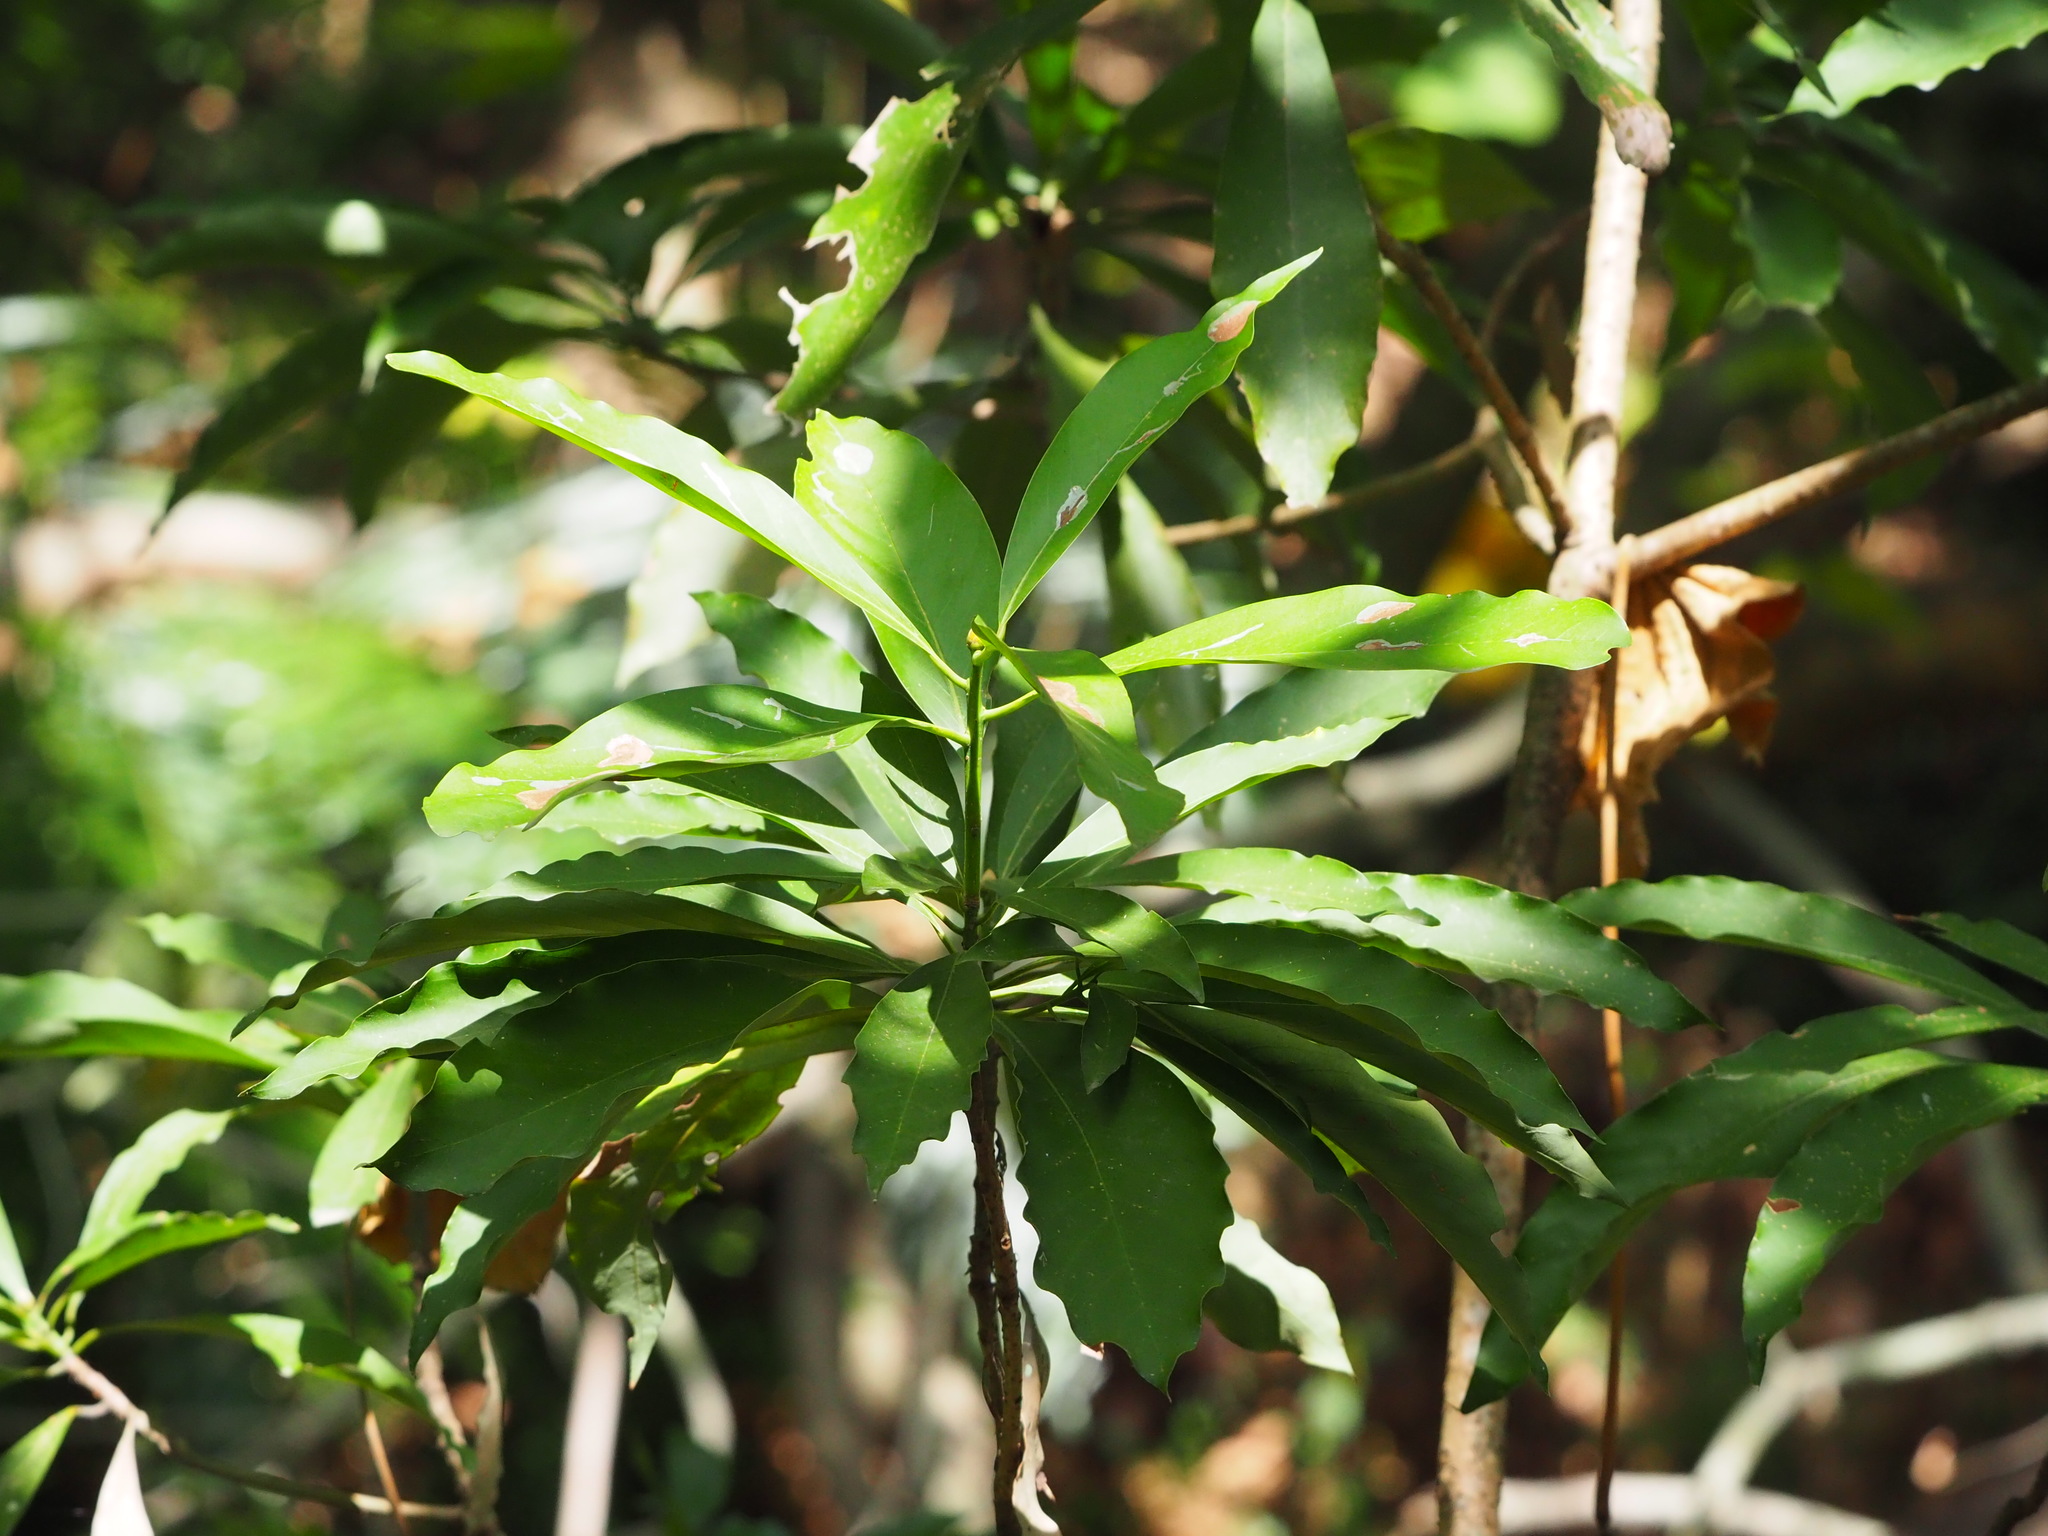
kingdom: Plantae
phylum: Tracheophyta
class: Magnoliopsida
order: Laurales
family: Lauraceae
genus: Machilus
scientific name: Machilus japonica
